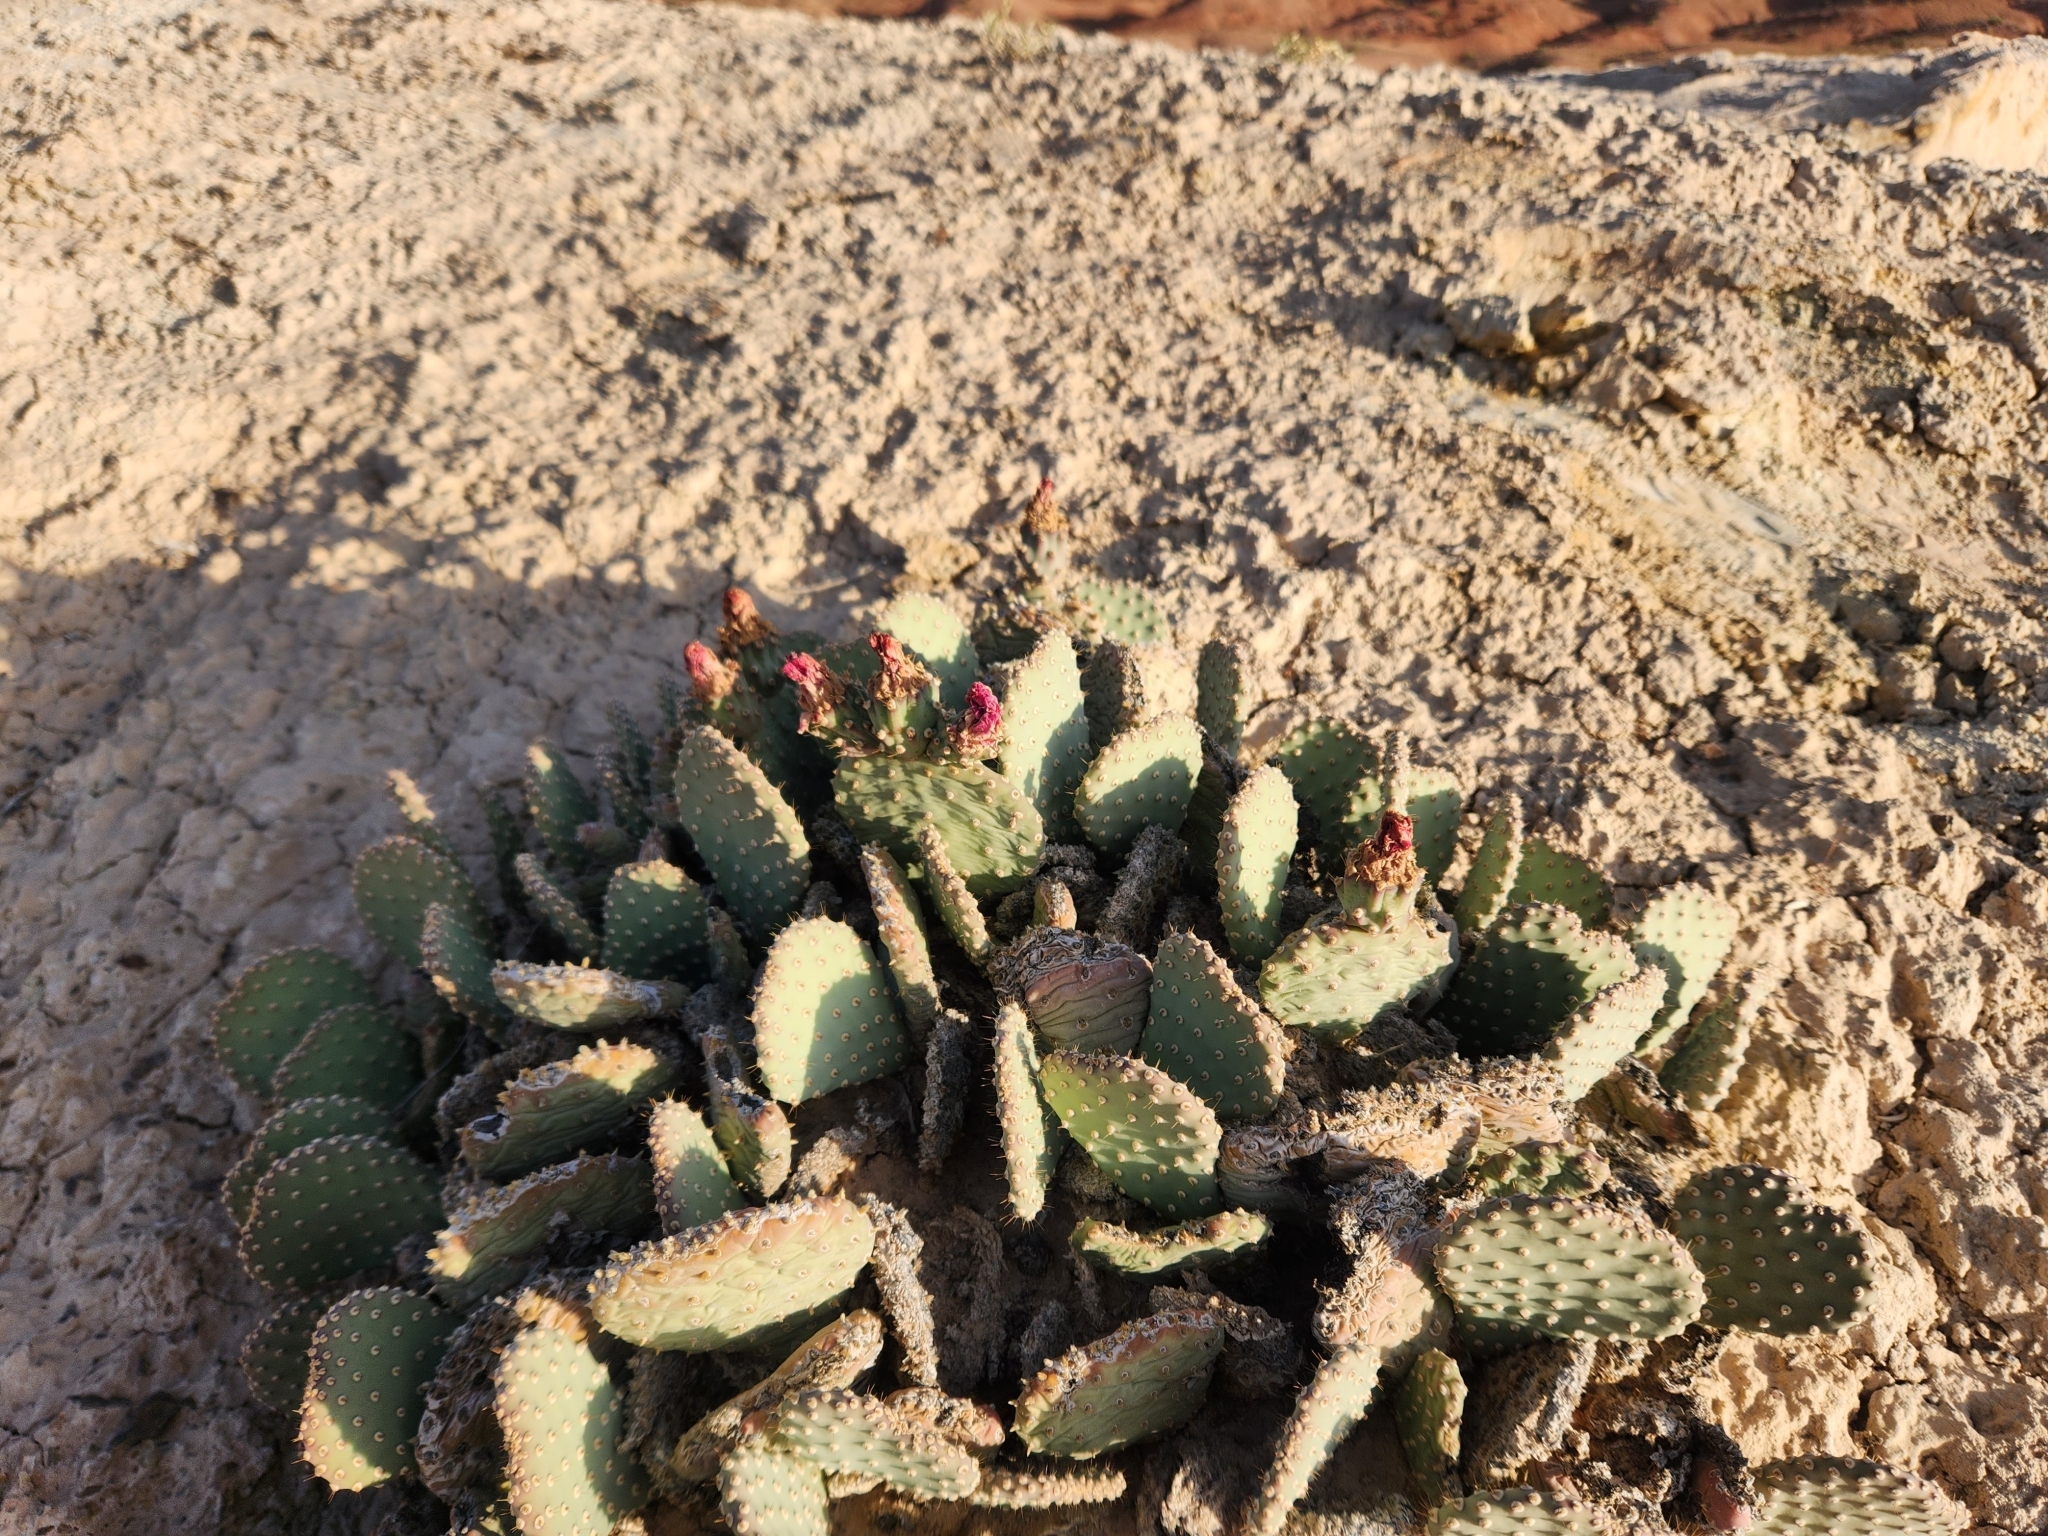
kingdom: Plantae
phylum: Tracheophyta
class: Magnoliopsida
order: Caryophyllales
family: Cactaceae
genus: Opuntia
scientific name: Opuntia basilaris
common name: Beavertail prickly-pear
